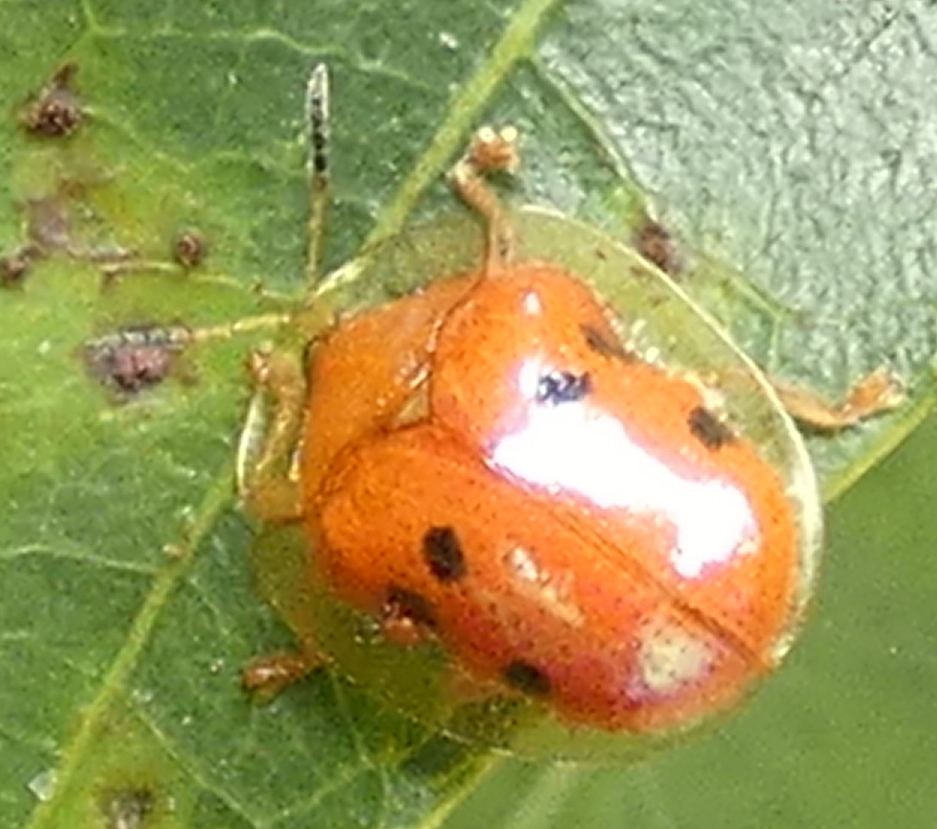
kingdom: Animalia
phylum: Arthropoda
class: Insecta
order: Coleoptera
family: Chrysomelidae
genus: Charidotella
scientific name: Charidotella sexpunctata
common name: Golden tortoise beetle
